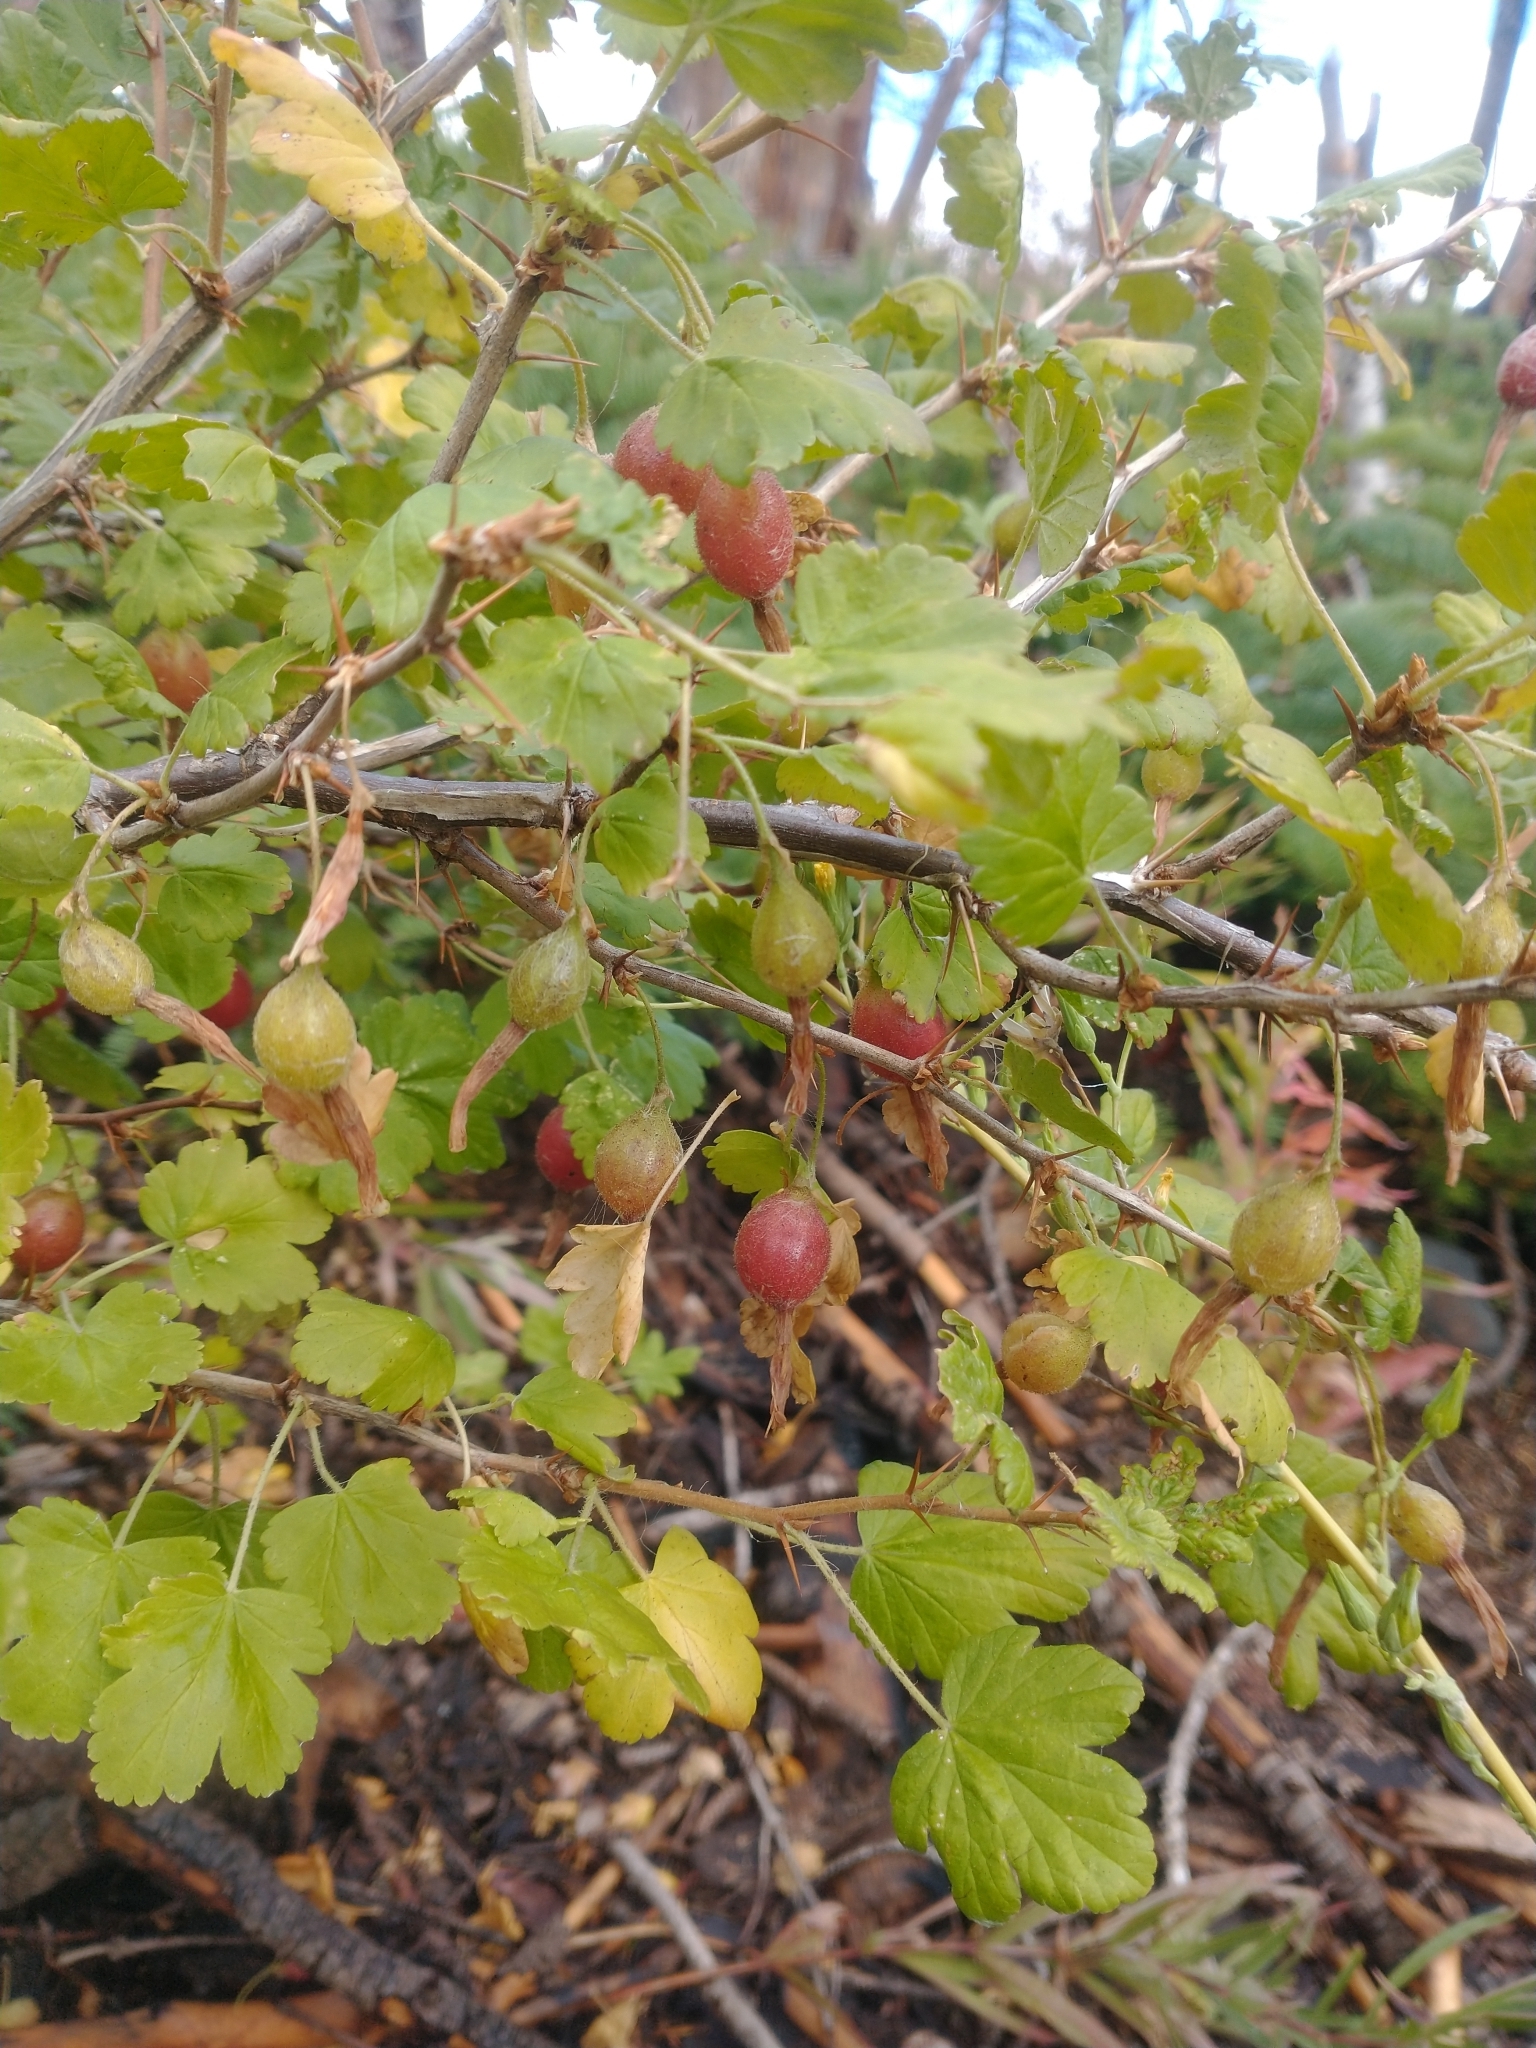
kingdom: Plantae
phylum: Tracheophyta
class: Magnoliopsida
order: Saxifragales
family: Grossulariaceae
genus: Ribes
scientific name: Ribes lobbii
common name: Gummy gooseberry
